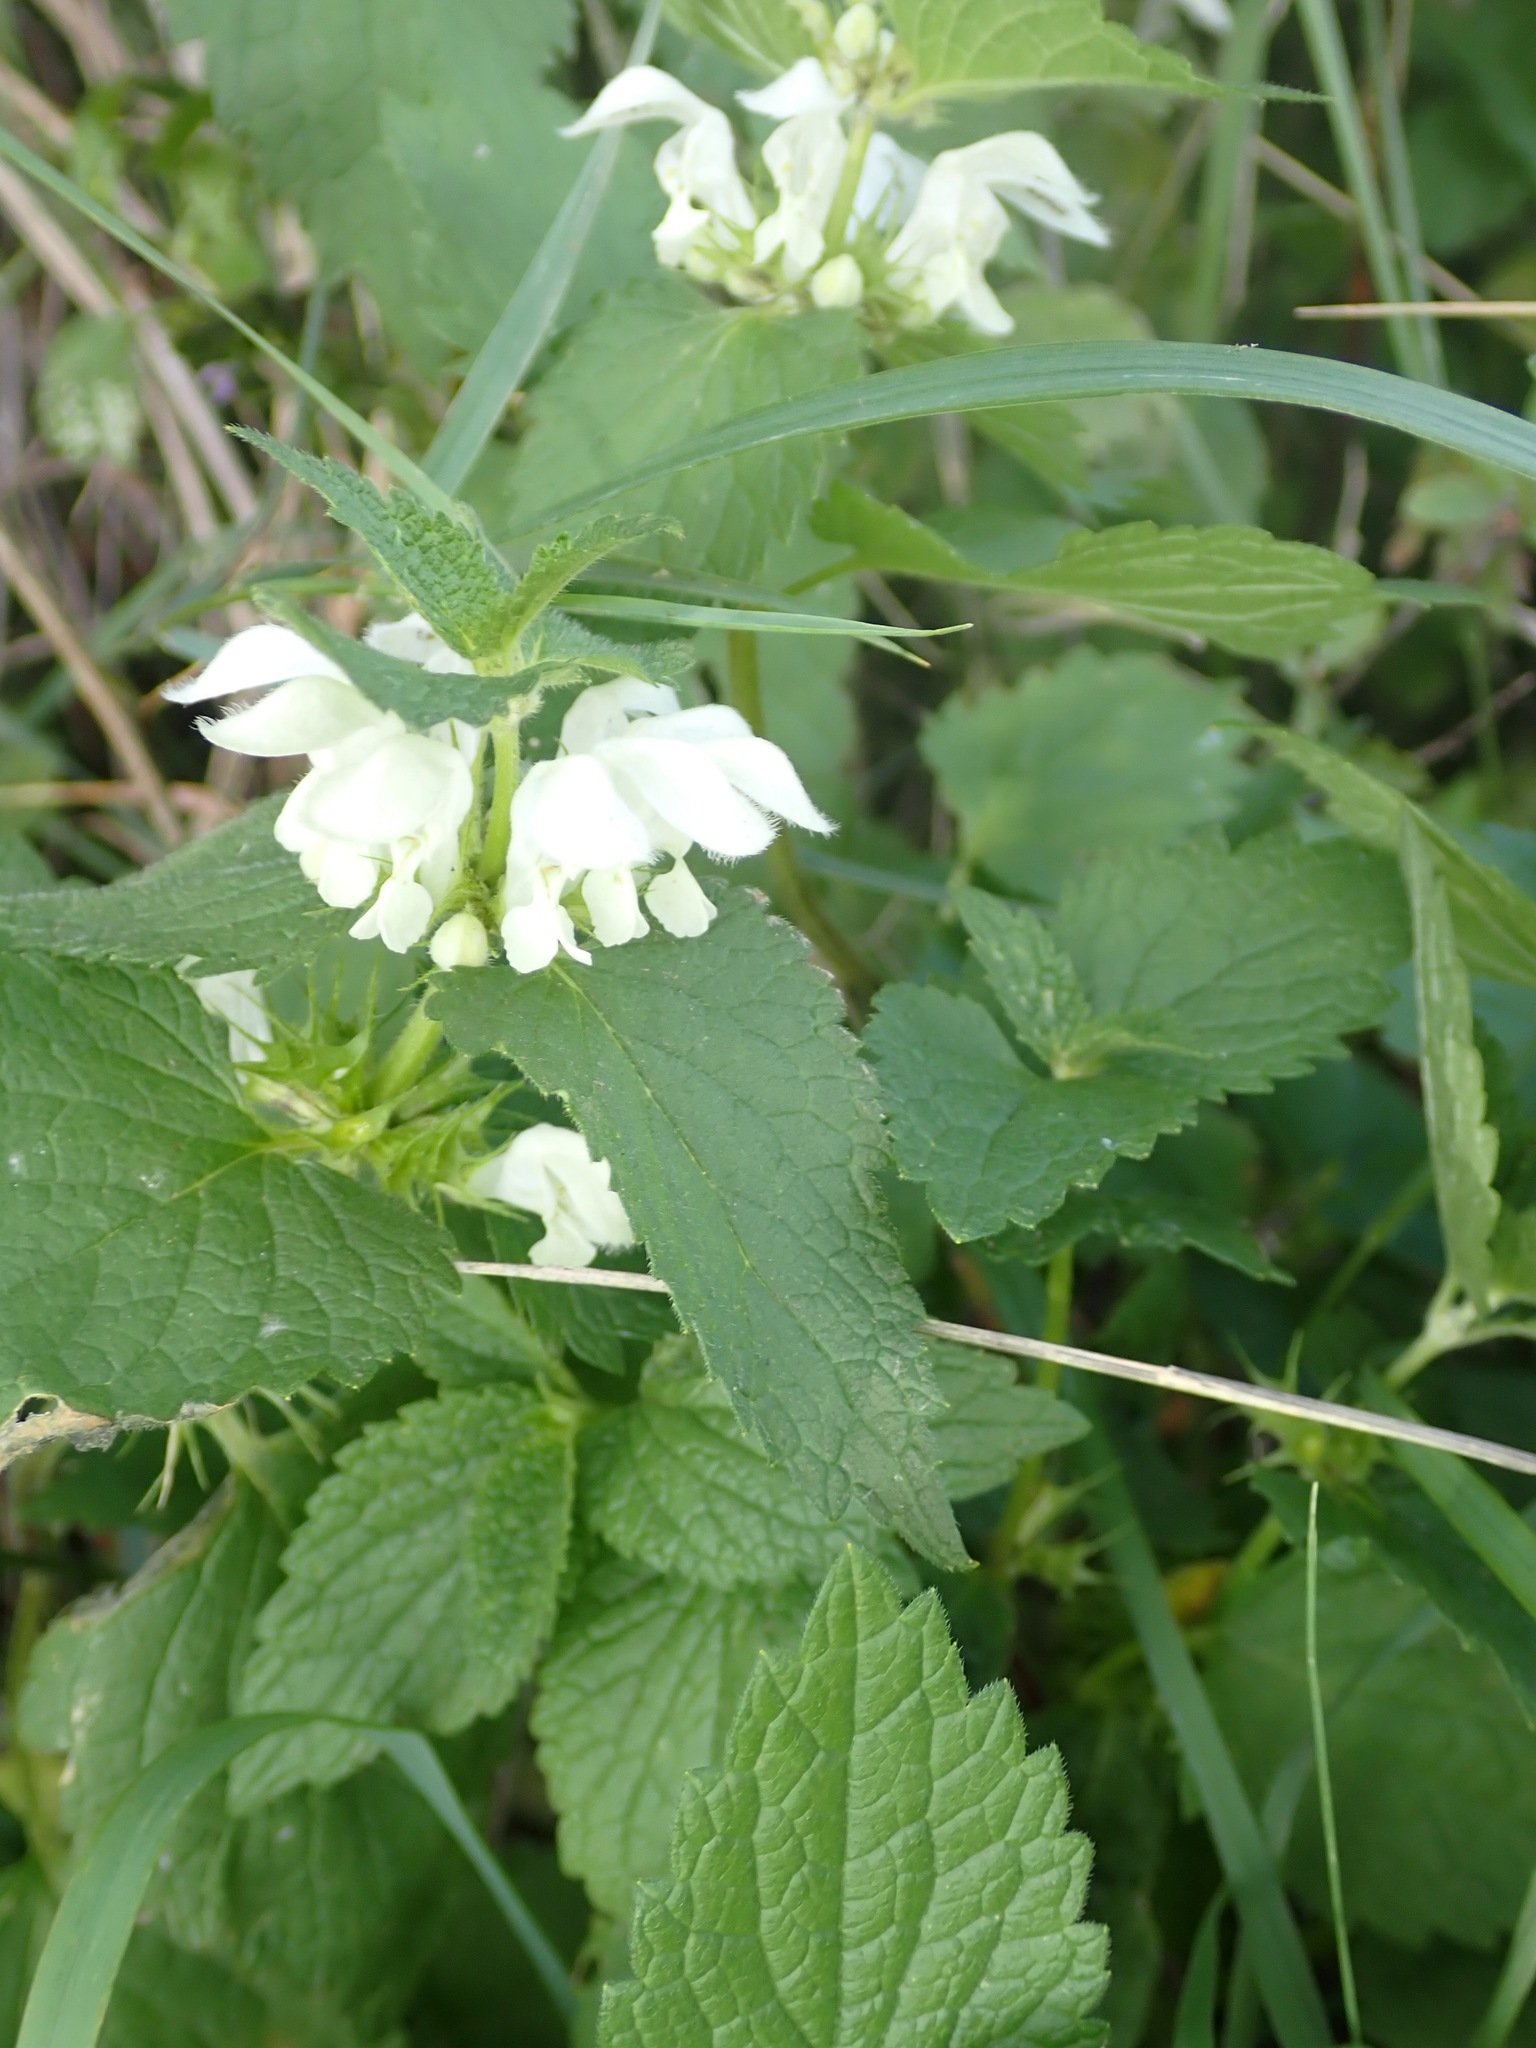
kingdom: Plantae
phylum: Tracheophyta
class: Magnoliopsida
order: Lamiales
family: Lamiaceae
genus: Lamium
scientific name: Lamium album
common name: White dead-nettle
